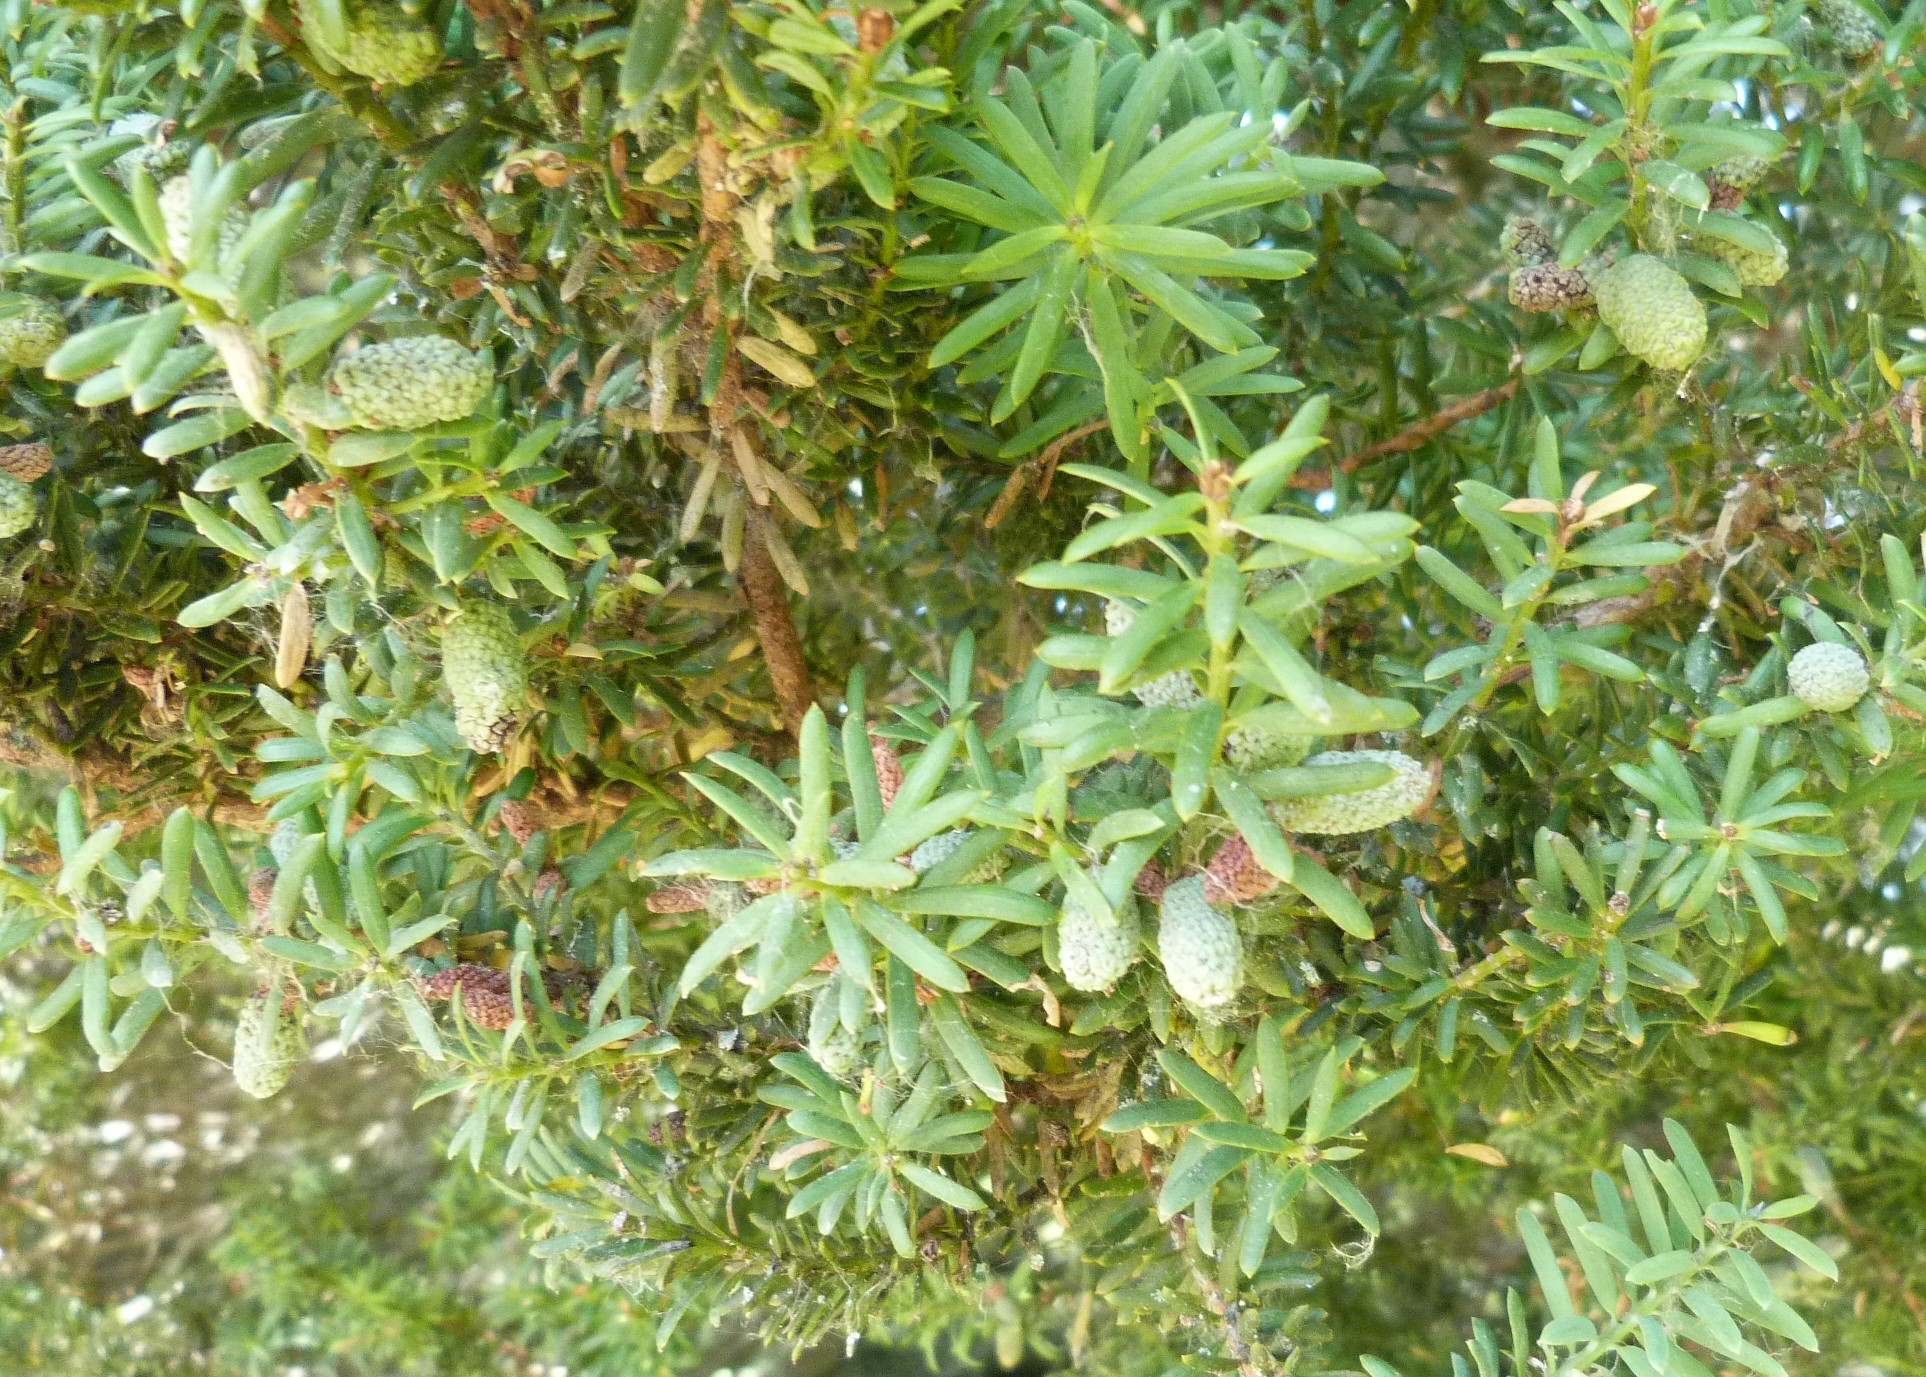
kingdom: Plantae
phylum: Tracheophyta
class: Pinopsida
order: Pinales
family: Podocarpaceae
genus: Podocarpus
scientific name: Podocarpus totara
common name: Totara
